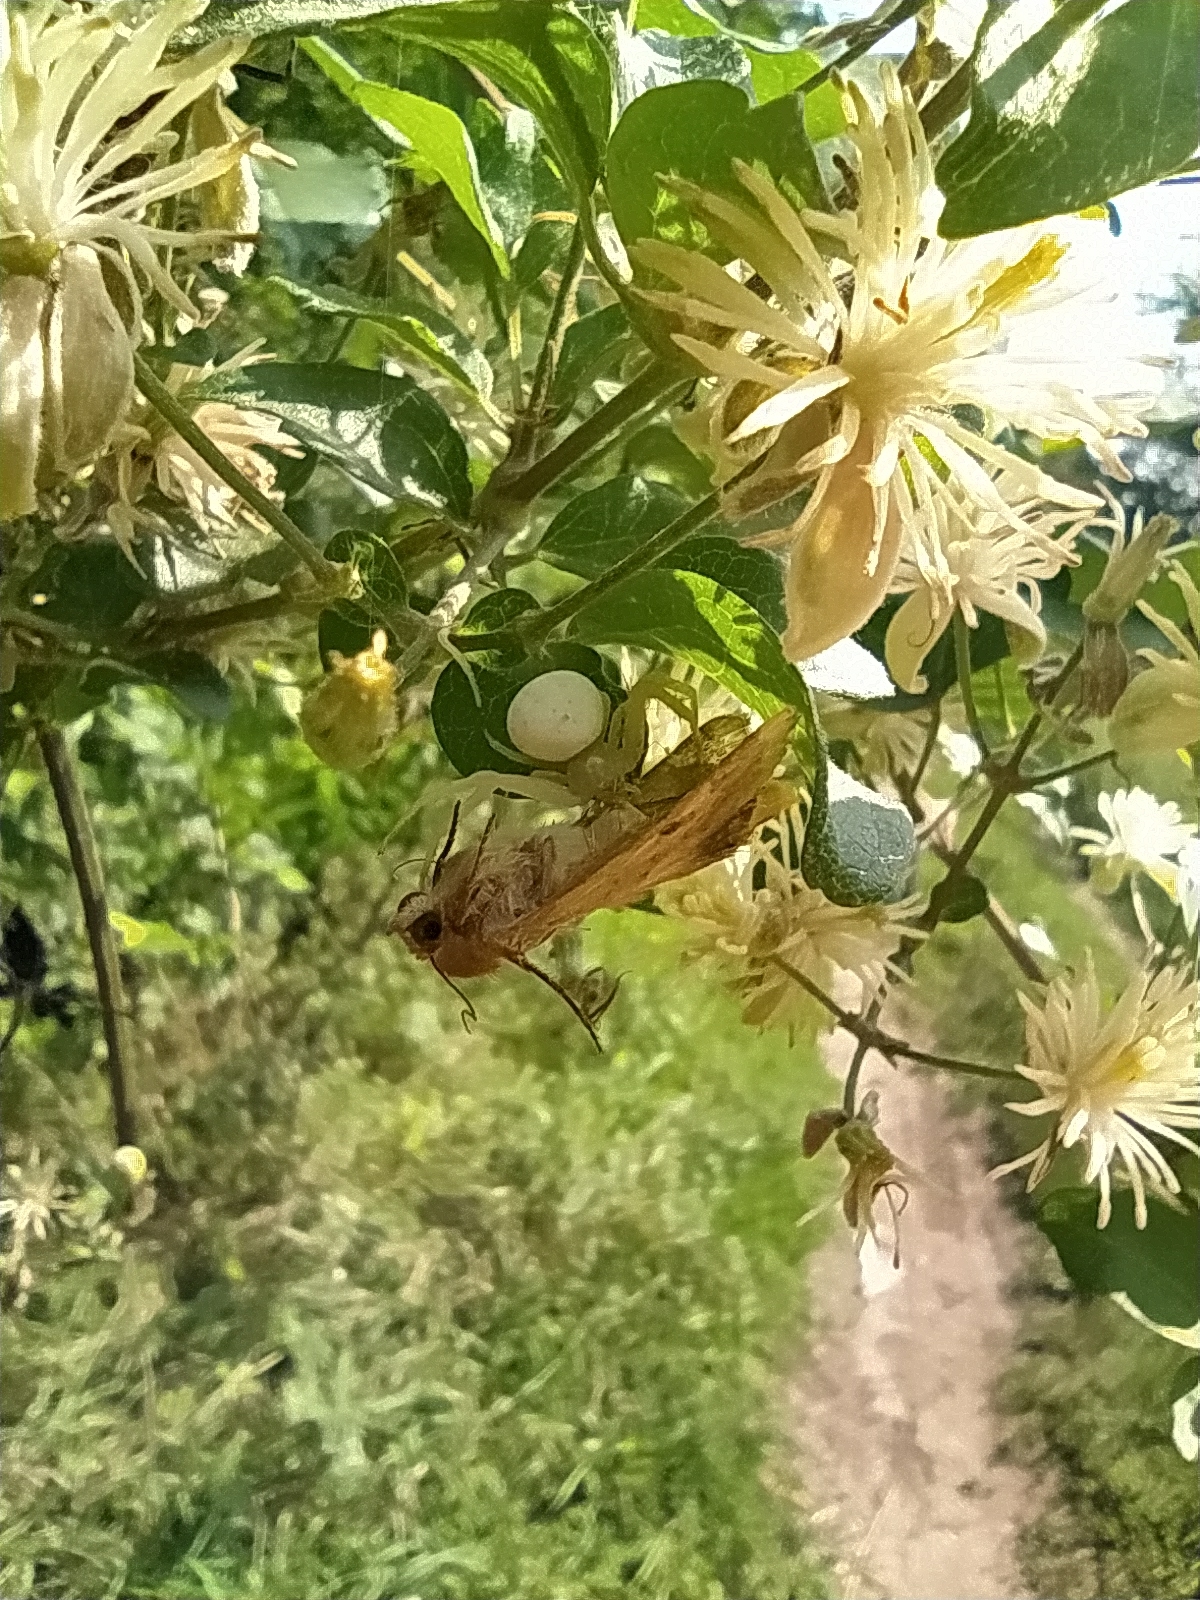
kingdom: Animalia
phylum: Arthropoda
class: Arachnida
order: Araneae
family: Thomisidae
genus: Misumena
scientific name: Misumena vatia
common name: Goldenrod crab spider
